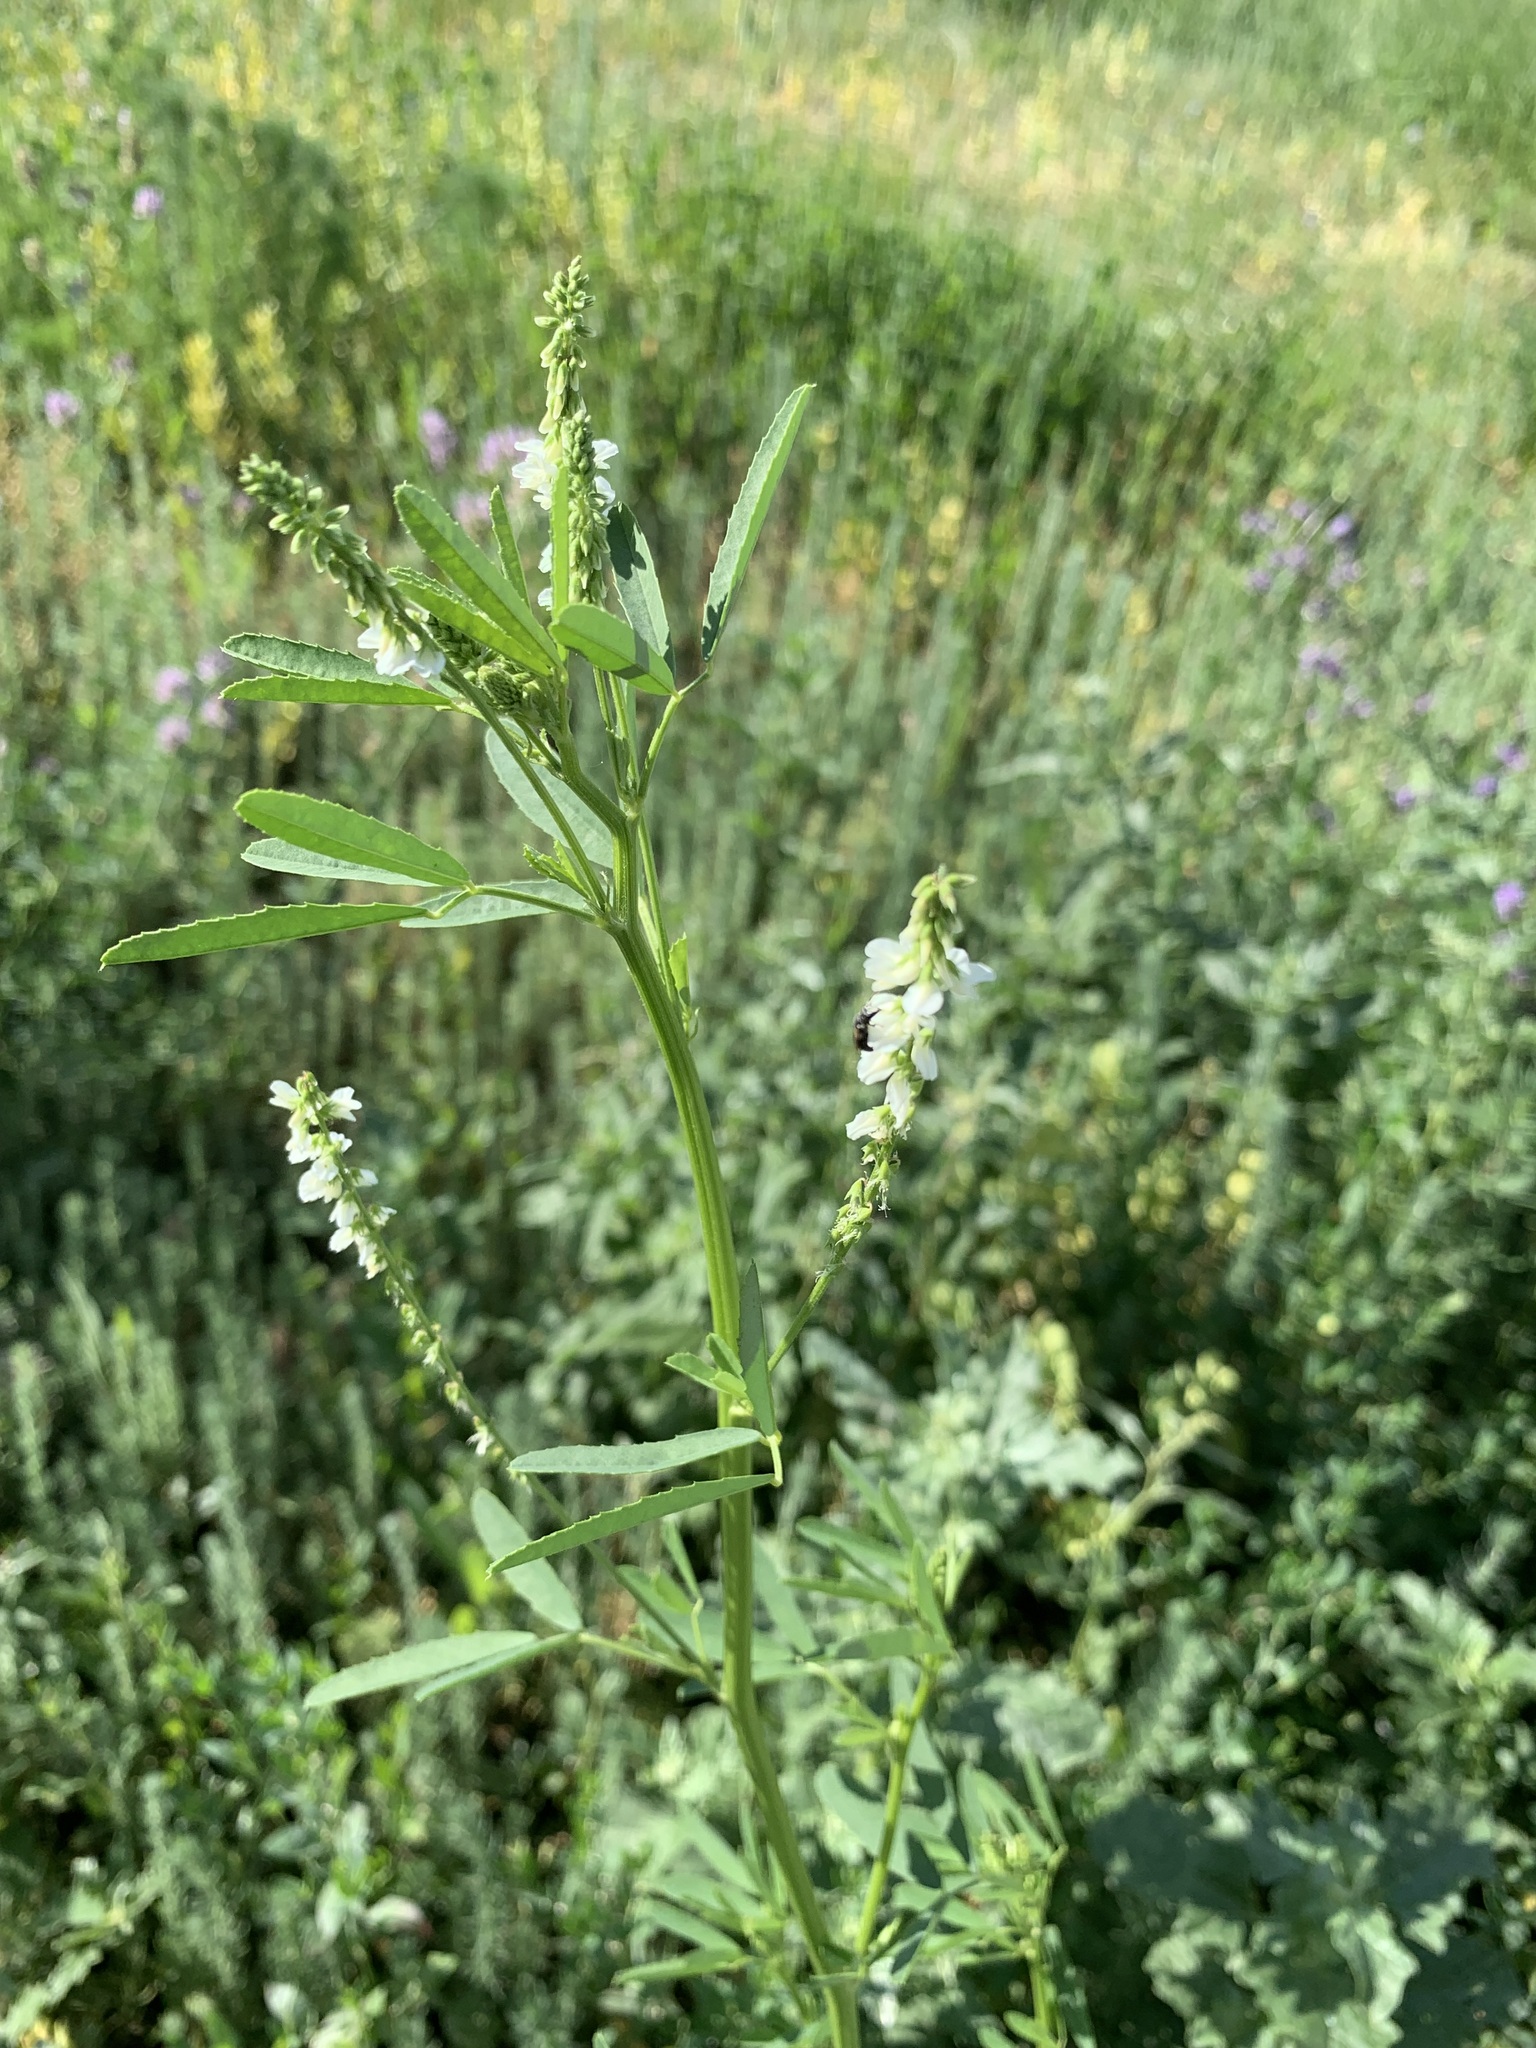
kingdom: Plantae
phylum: Tracheophyta
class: Magnoliopsida
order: Fabales
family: Fabaceae
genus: Melilotus
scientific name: Melilotus albus
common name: White melilot
